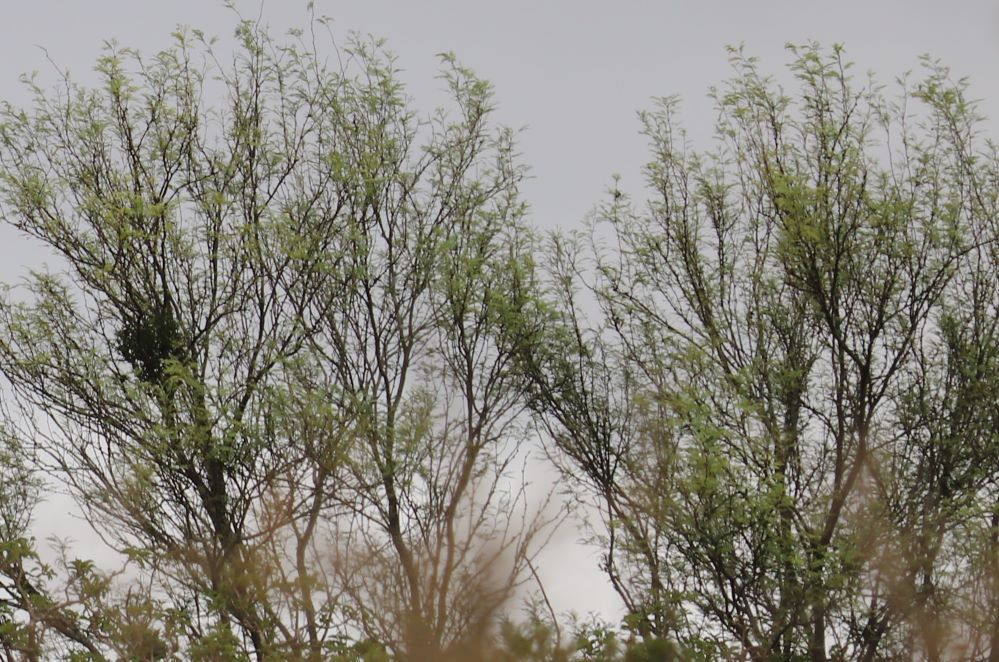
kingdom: Plantae
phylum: Tracheophyta
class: Magnoliopsida
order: Fabales
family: Fabaceae
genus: Vachellia
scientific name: Vachellia karroo
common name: Sweet thorn
